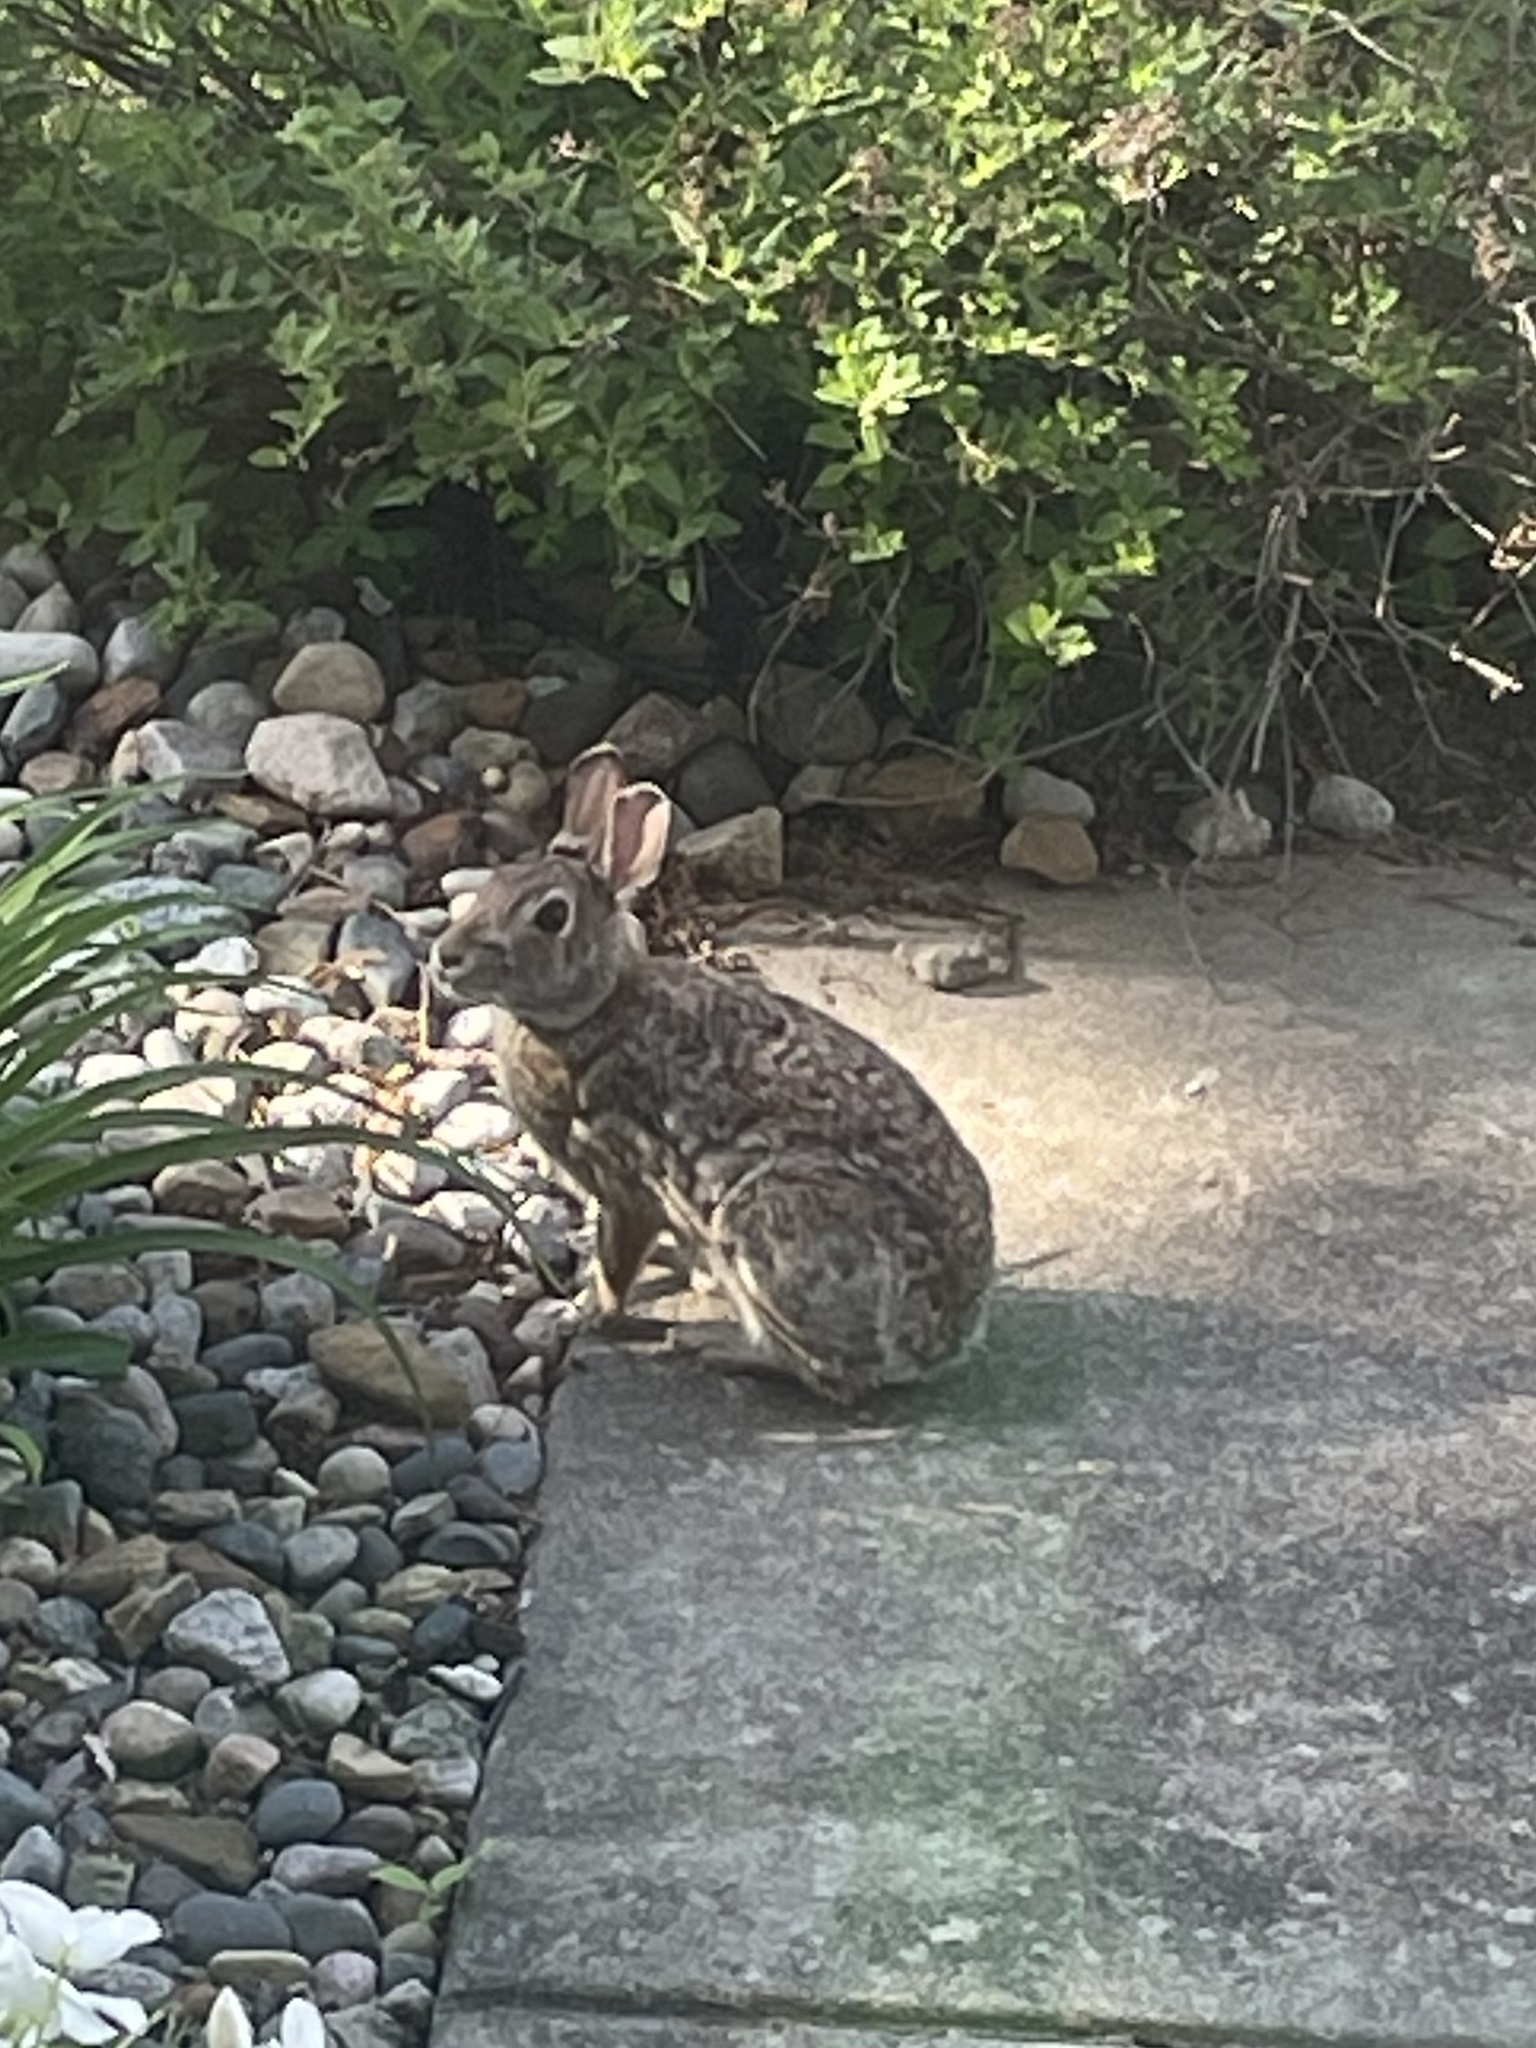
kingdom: Animalia
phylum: Chordata
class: Mammalia
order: Lagomorpha
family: Leporidae
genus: Sylvilagus
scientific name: Sylvilagus floridanus
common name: Eastern cottontail
